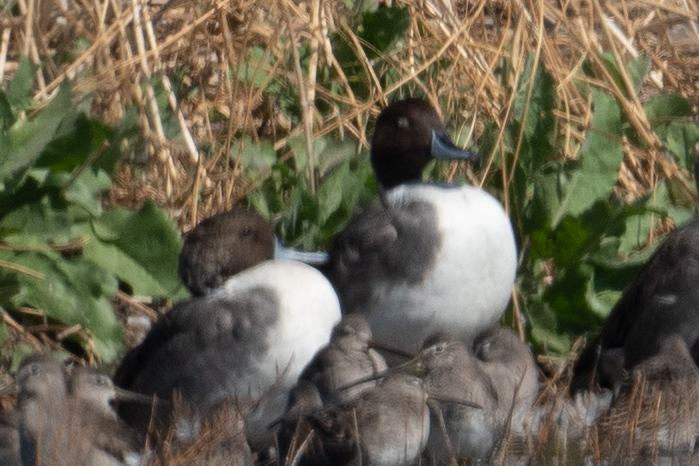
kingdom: Animalia
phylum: Chordata
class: Aves
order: Anseriformes
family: Anatidae
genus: Anas
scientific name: Anas acuta
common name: Northern pintail
